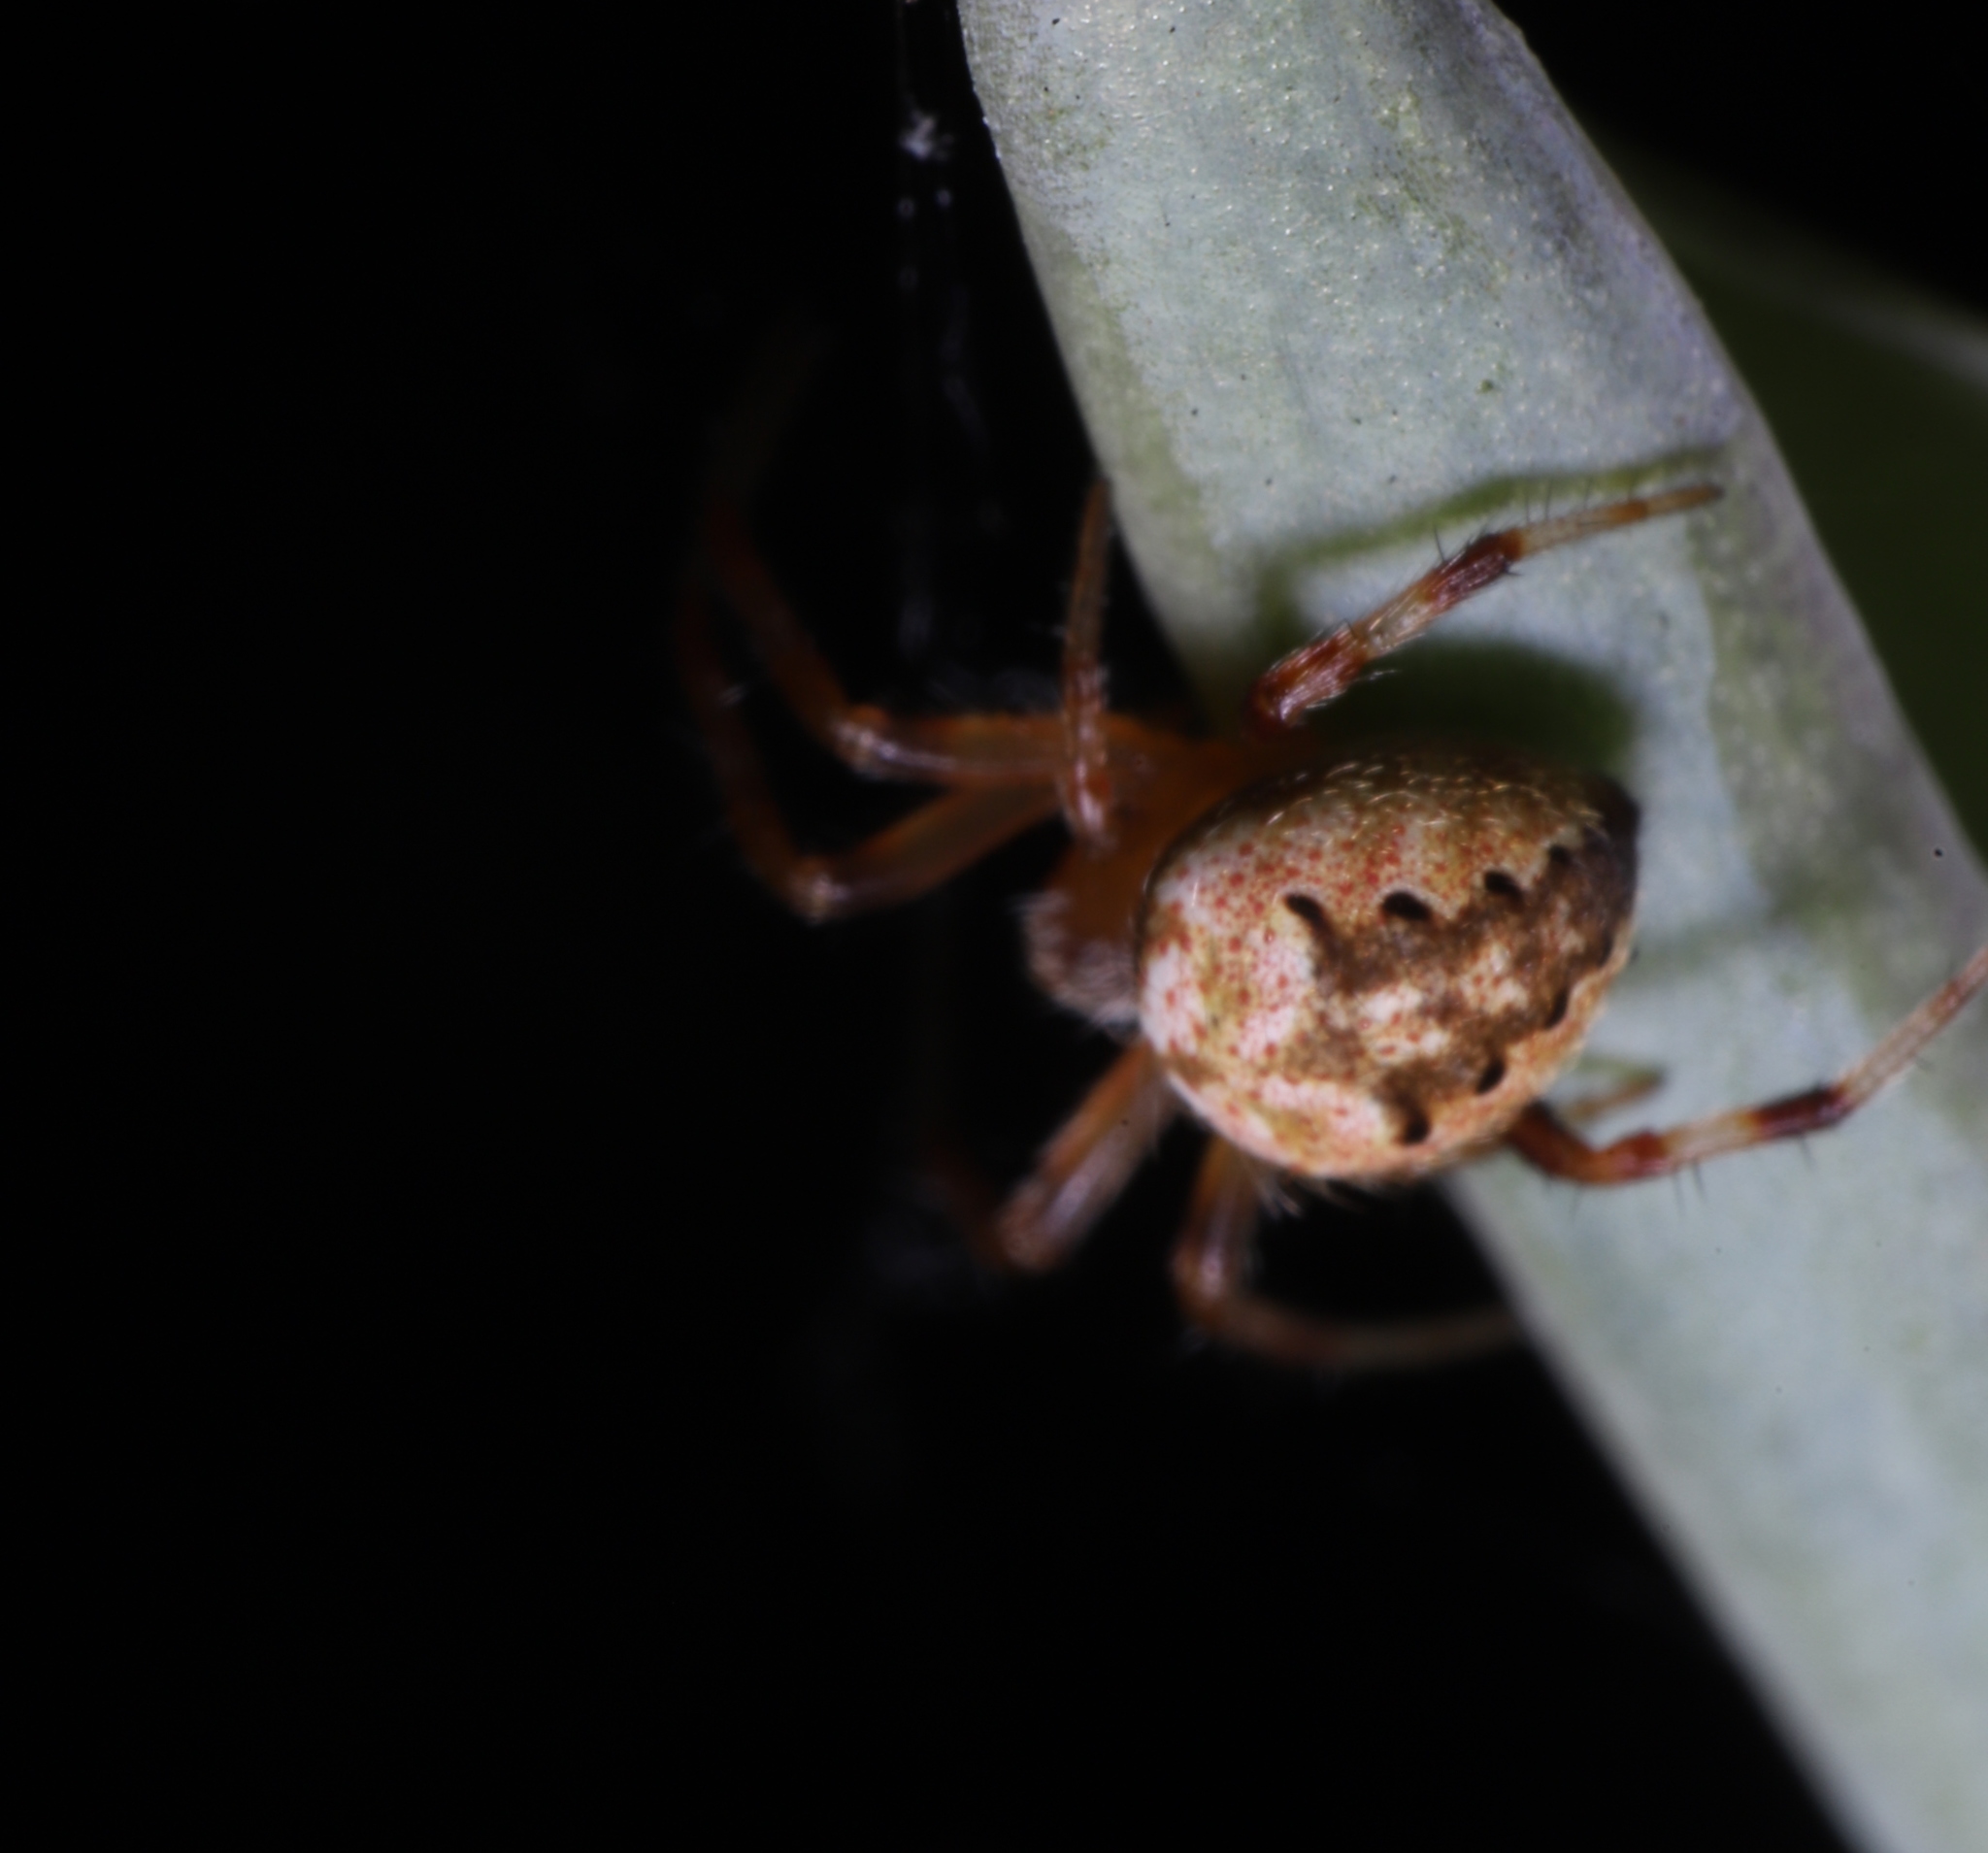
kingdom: Animalia
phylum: Arthropoda
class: Arachnida
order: Araneae
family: Araneidae
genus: Neoscona
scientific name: Neoscona arabesca
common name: Orb weavers
